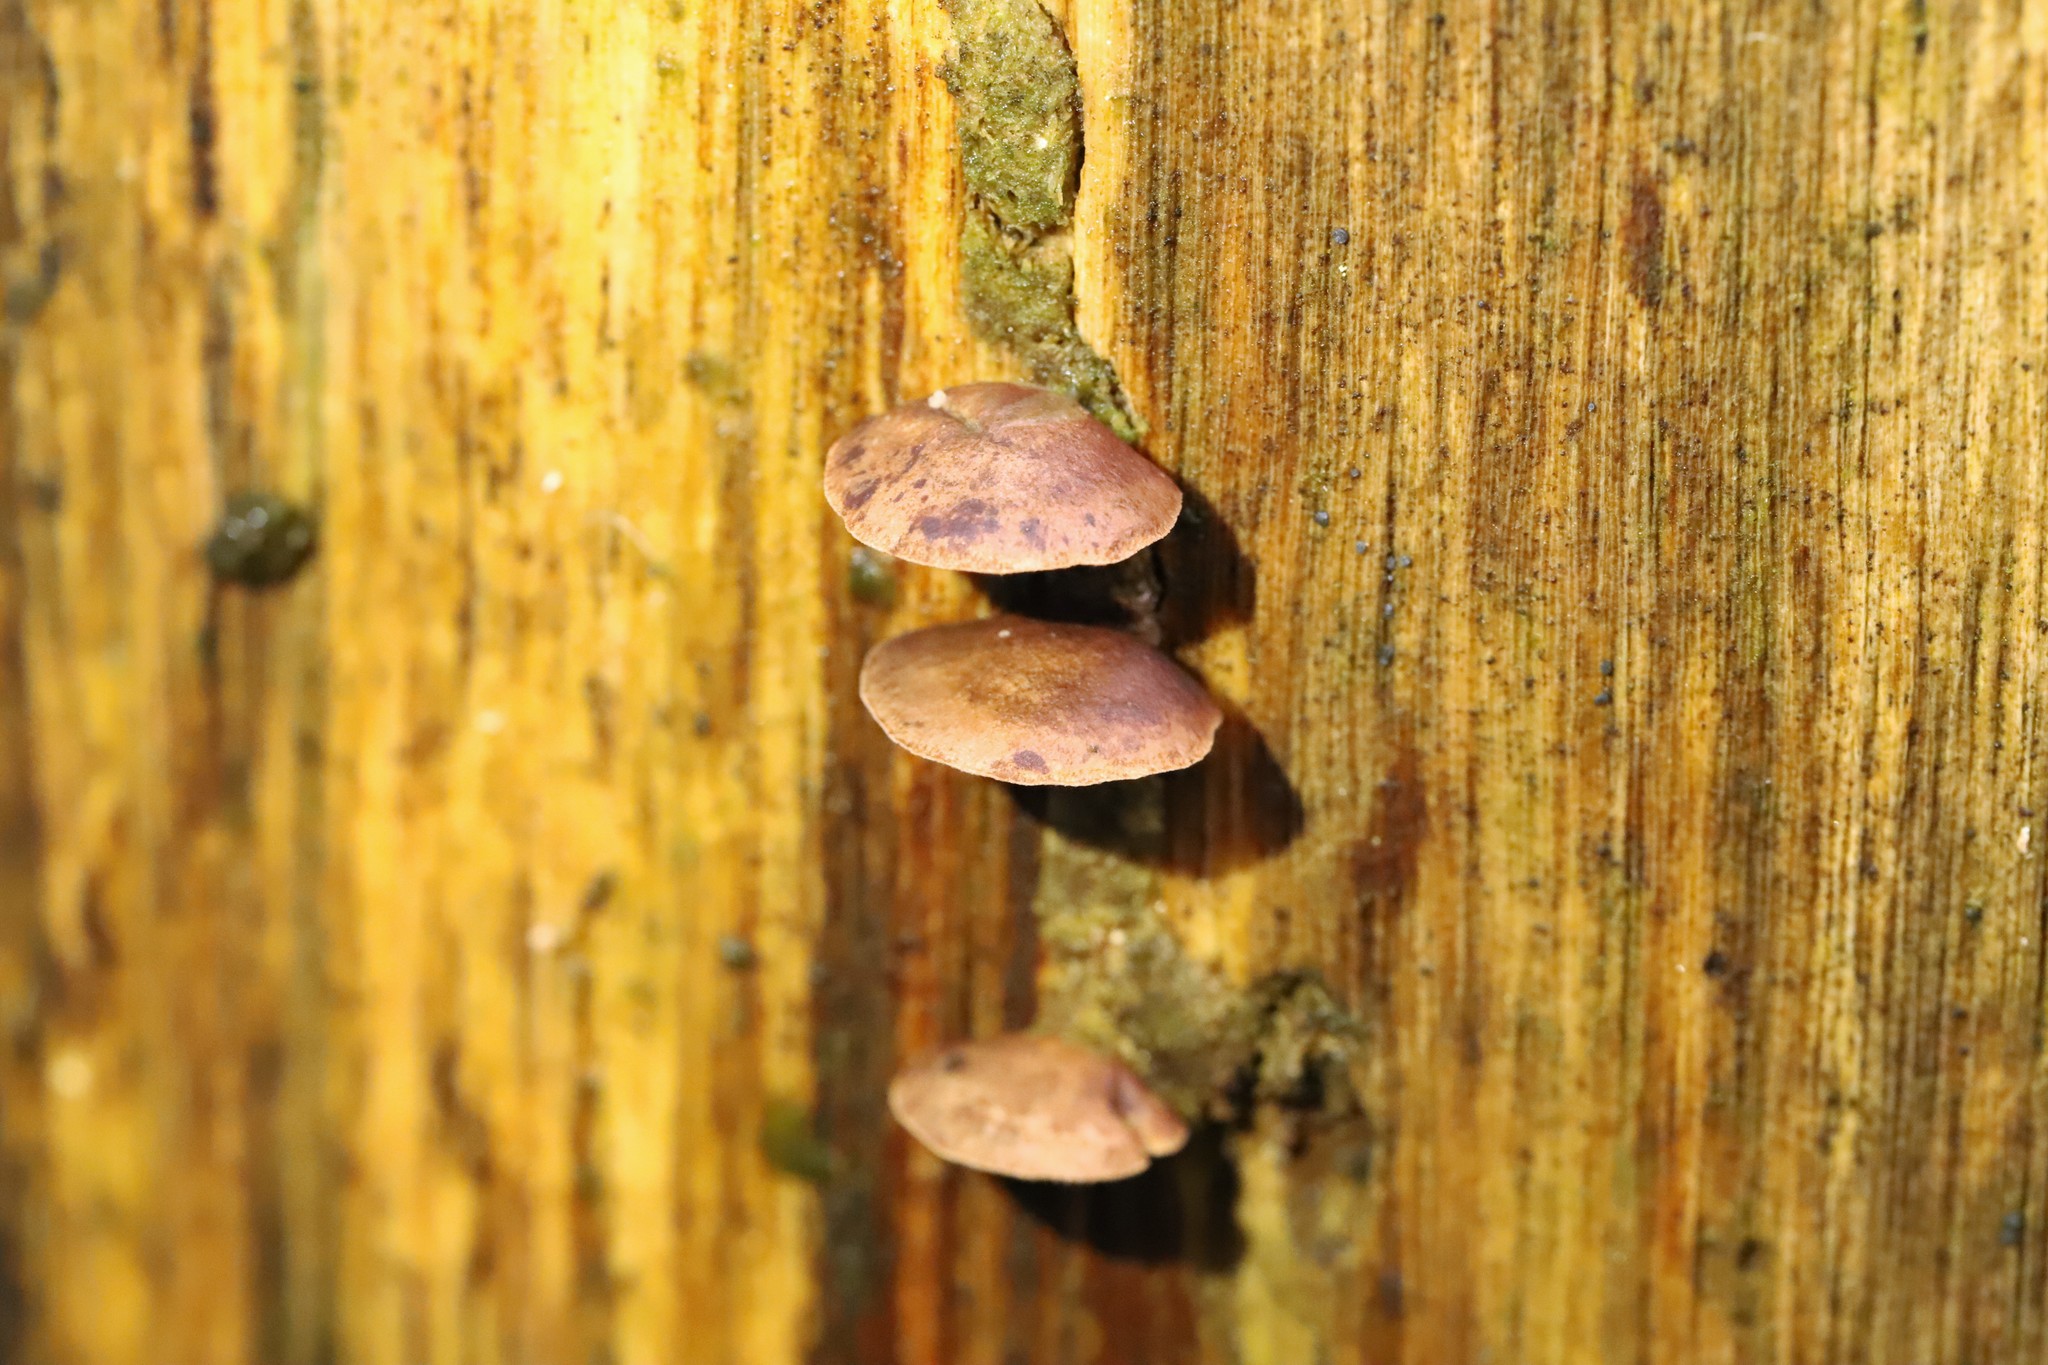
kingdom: Fungi
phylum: Basidiomycota
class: Agaricomycetes
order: Agaricales
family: Mycenaceae
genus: Panellus
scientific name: Panellus stipticus
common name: Bitter oysterling
